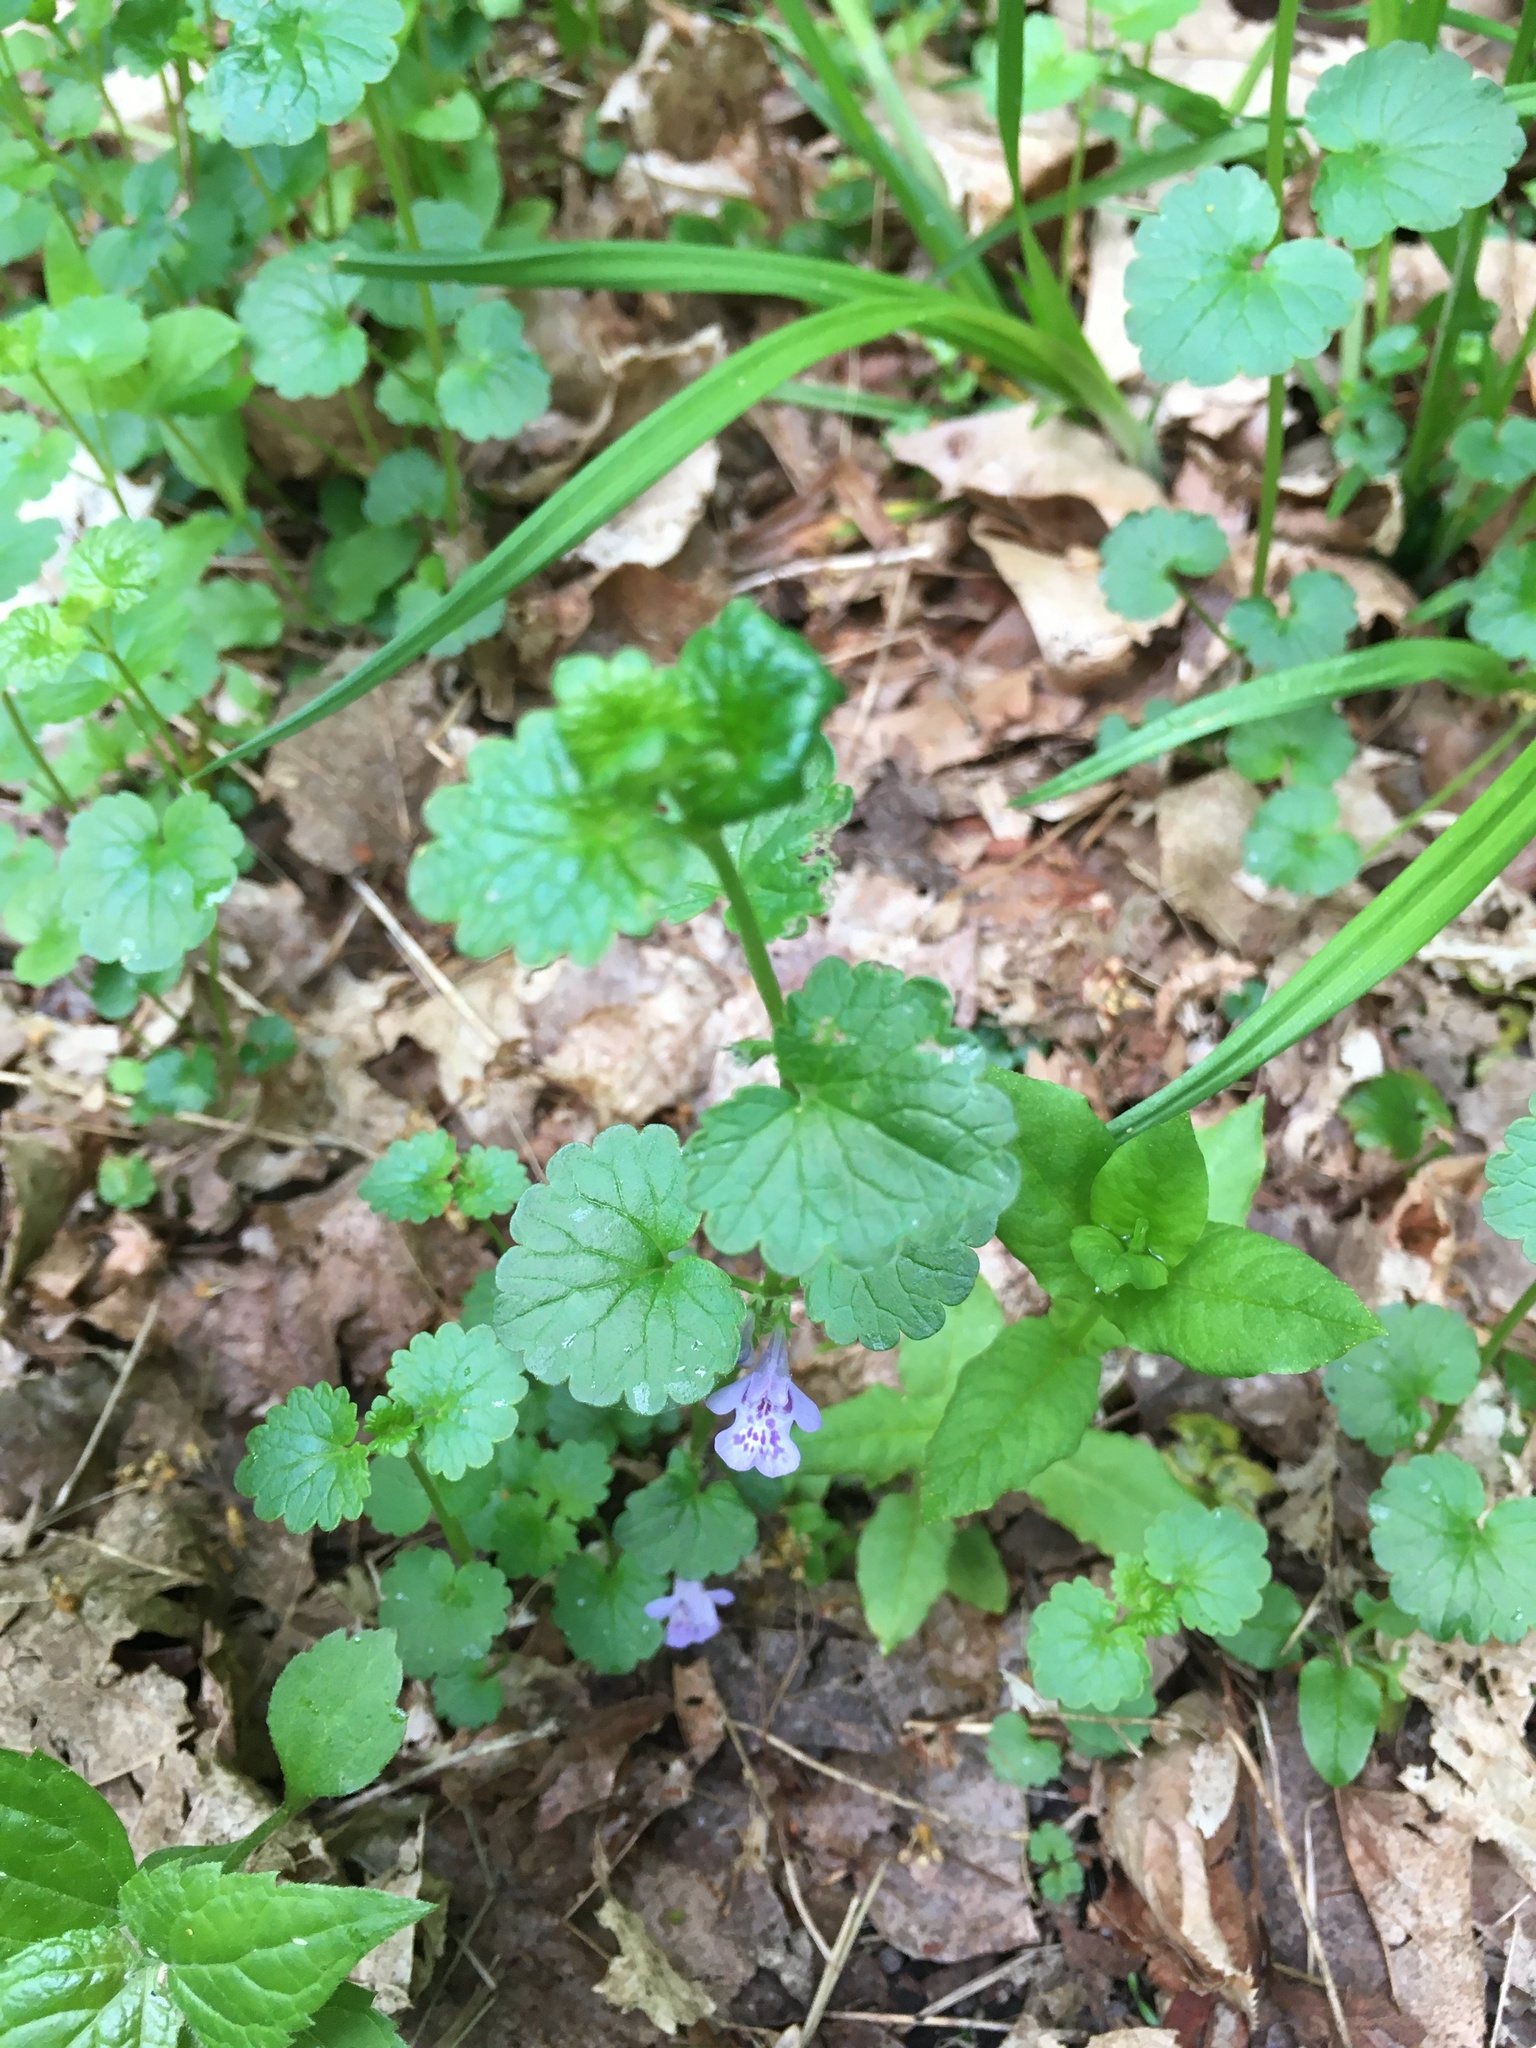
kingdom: Plantae
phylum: Tracheophyta
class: Magnoliopsida
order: Lamiales
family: Lamiaceae
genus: Glechoma
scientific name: Glechoma hederacea
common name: Ground ivy
